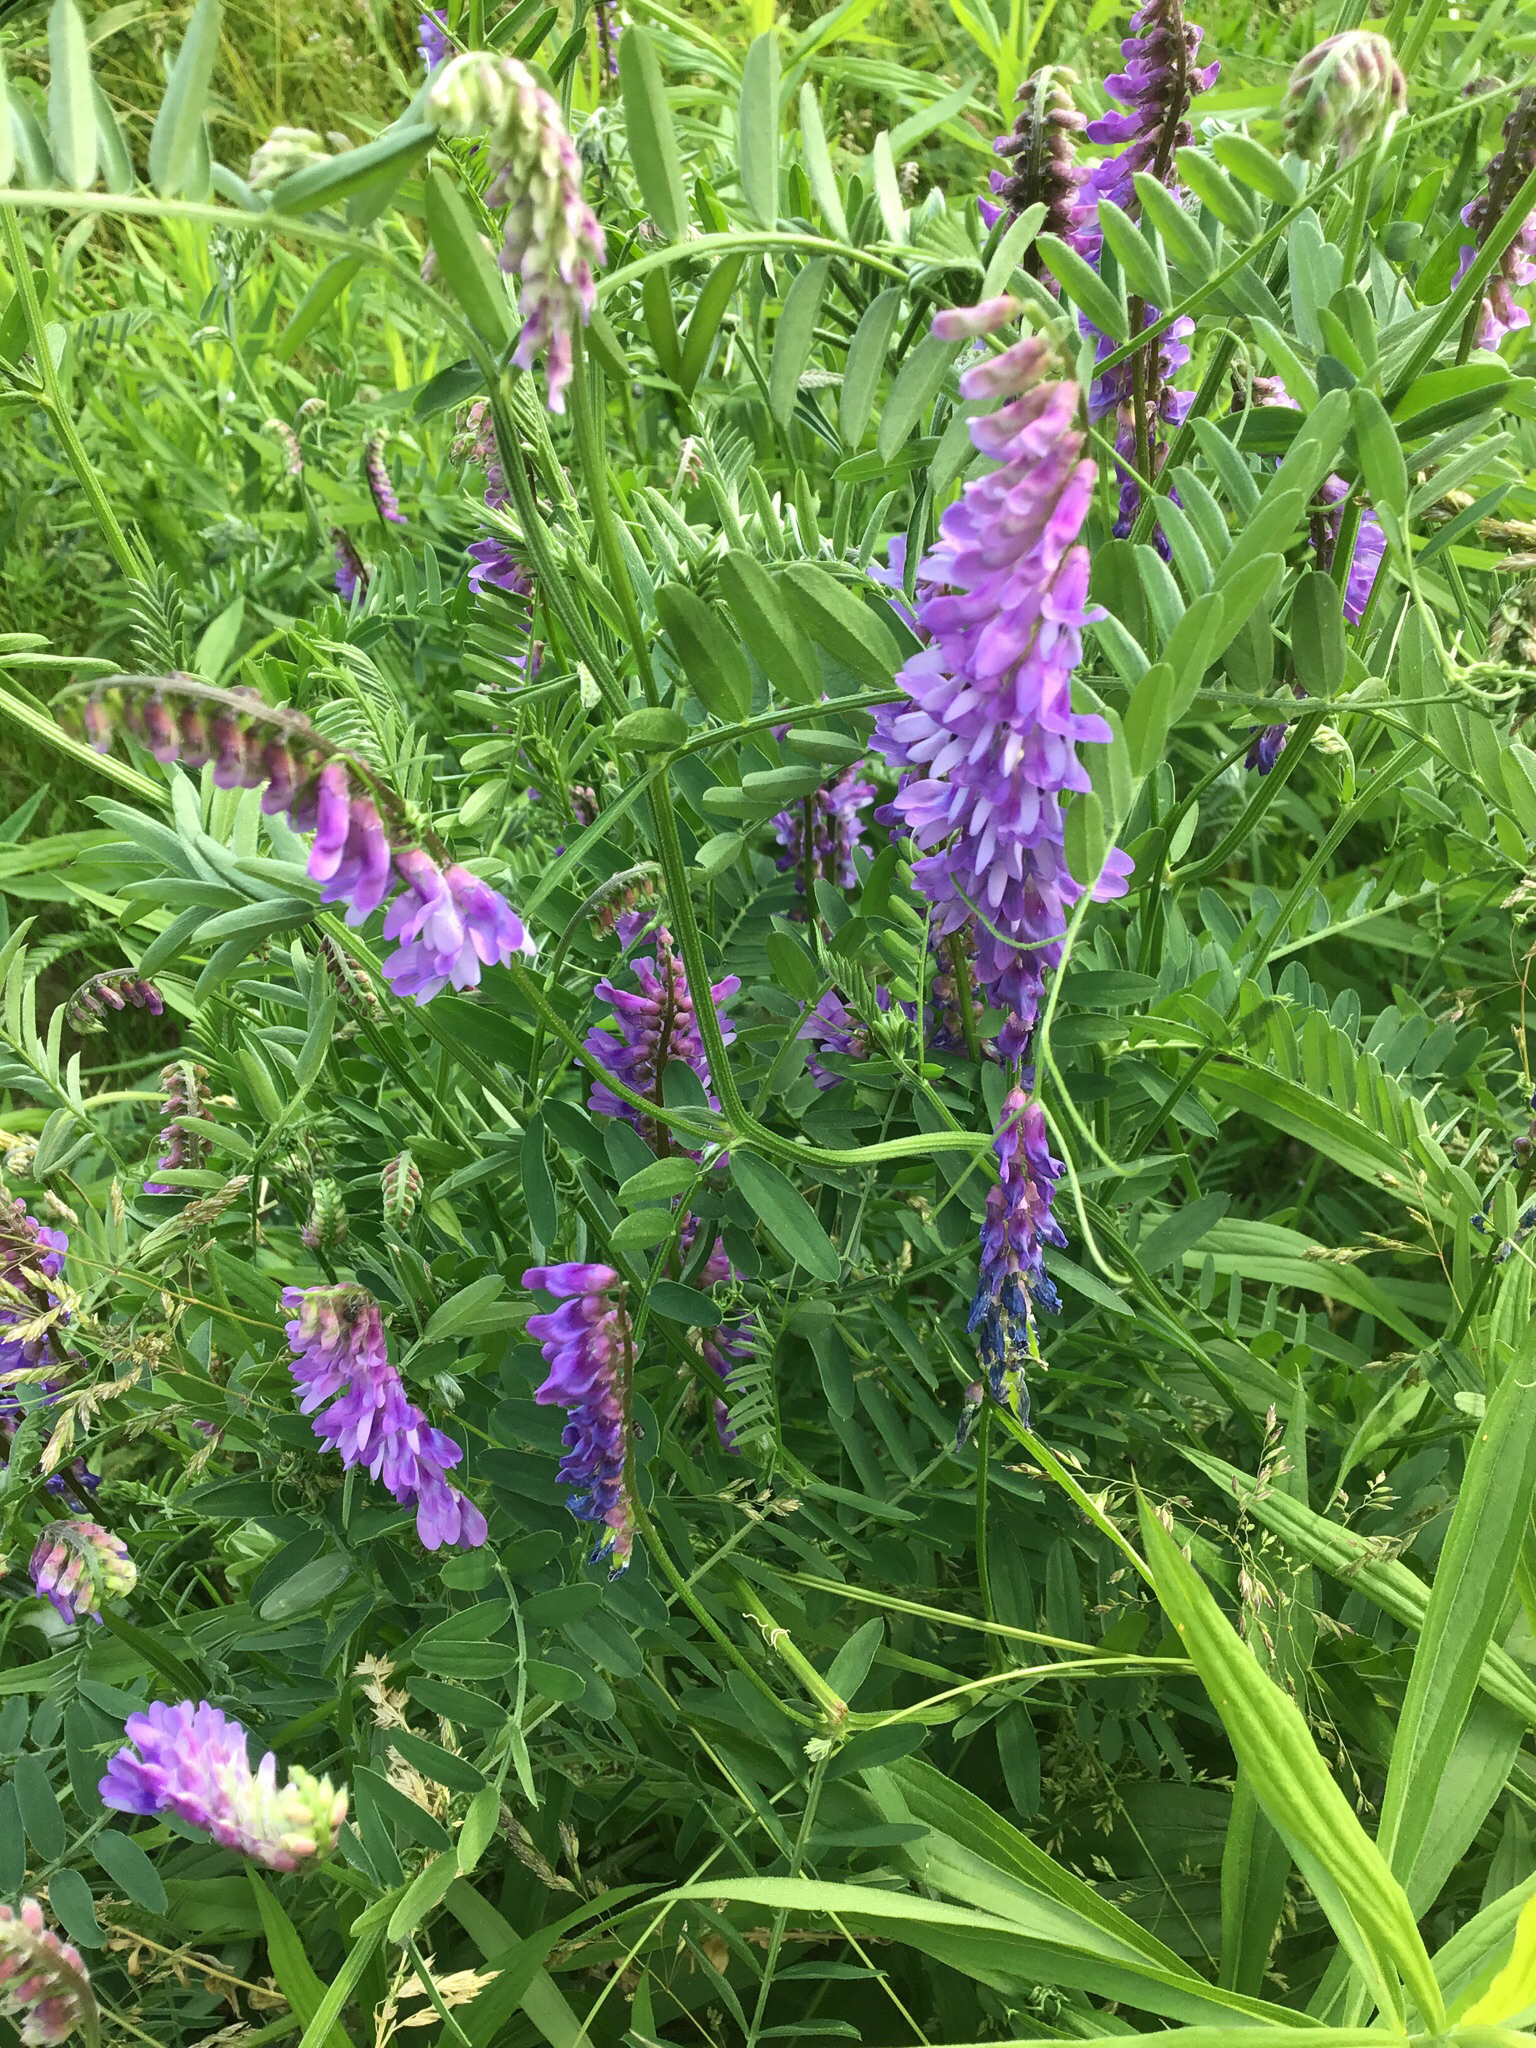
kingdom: Plantae
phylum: Tracheophyta
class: Magnoliopsida
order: Fabales
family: Fabaceae
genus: Vicia
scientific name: Vicia cracca
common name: Bird vetch
